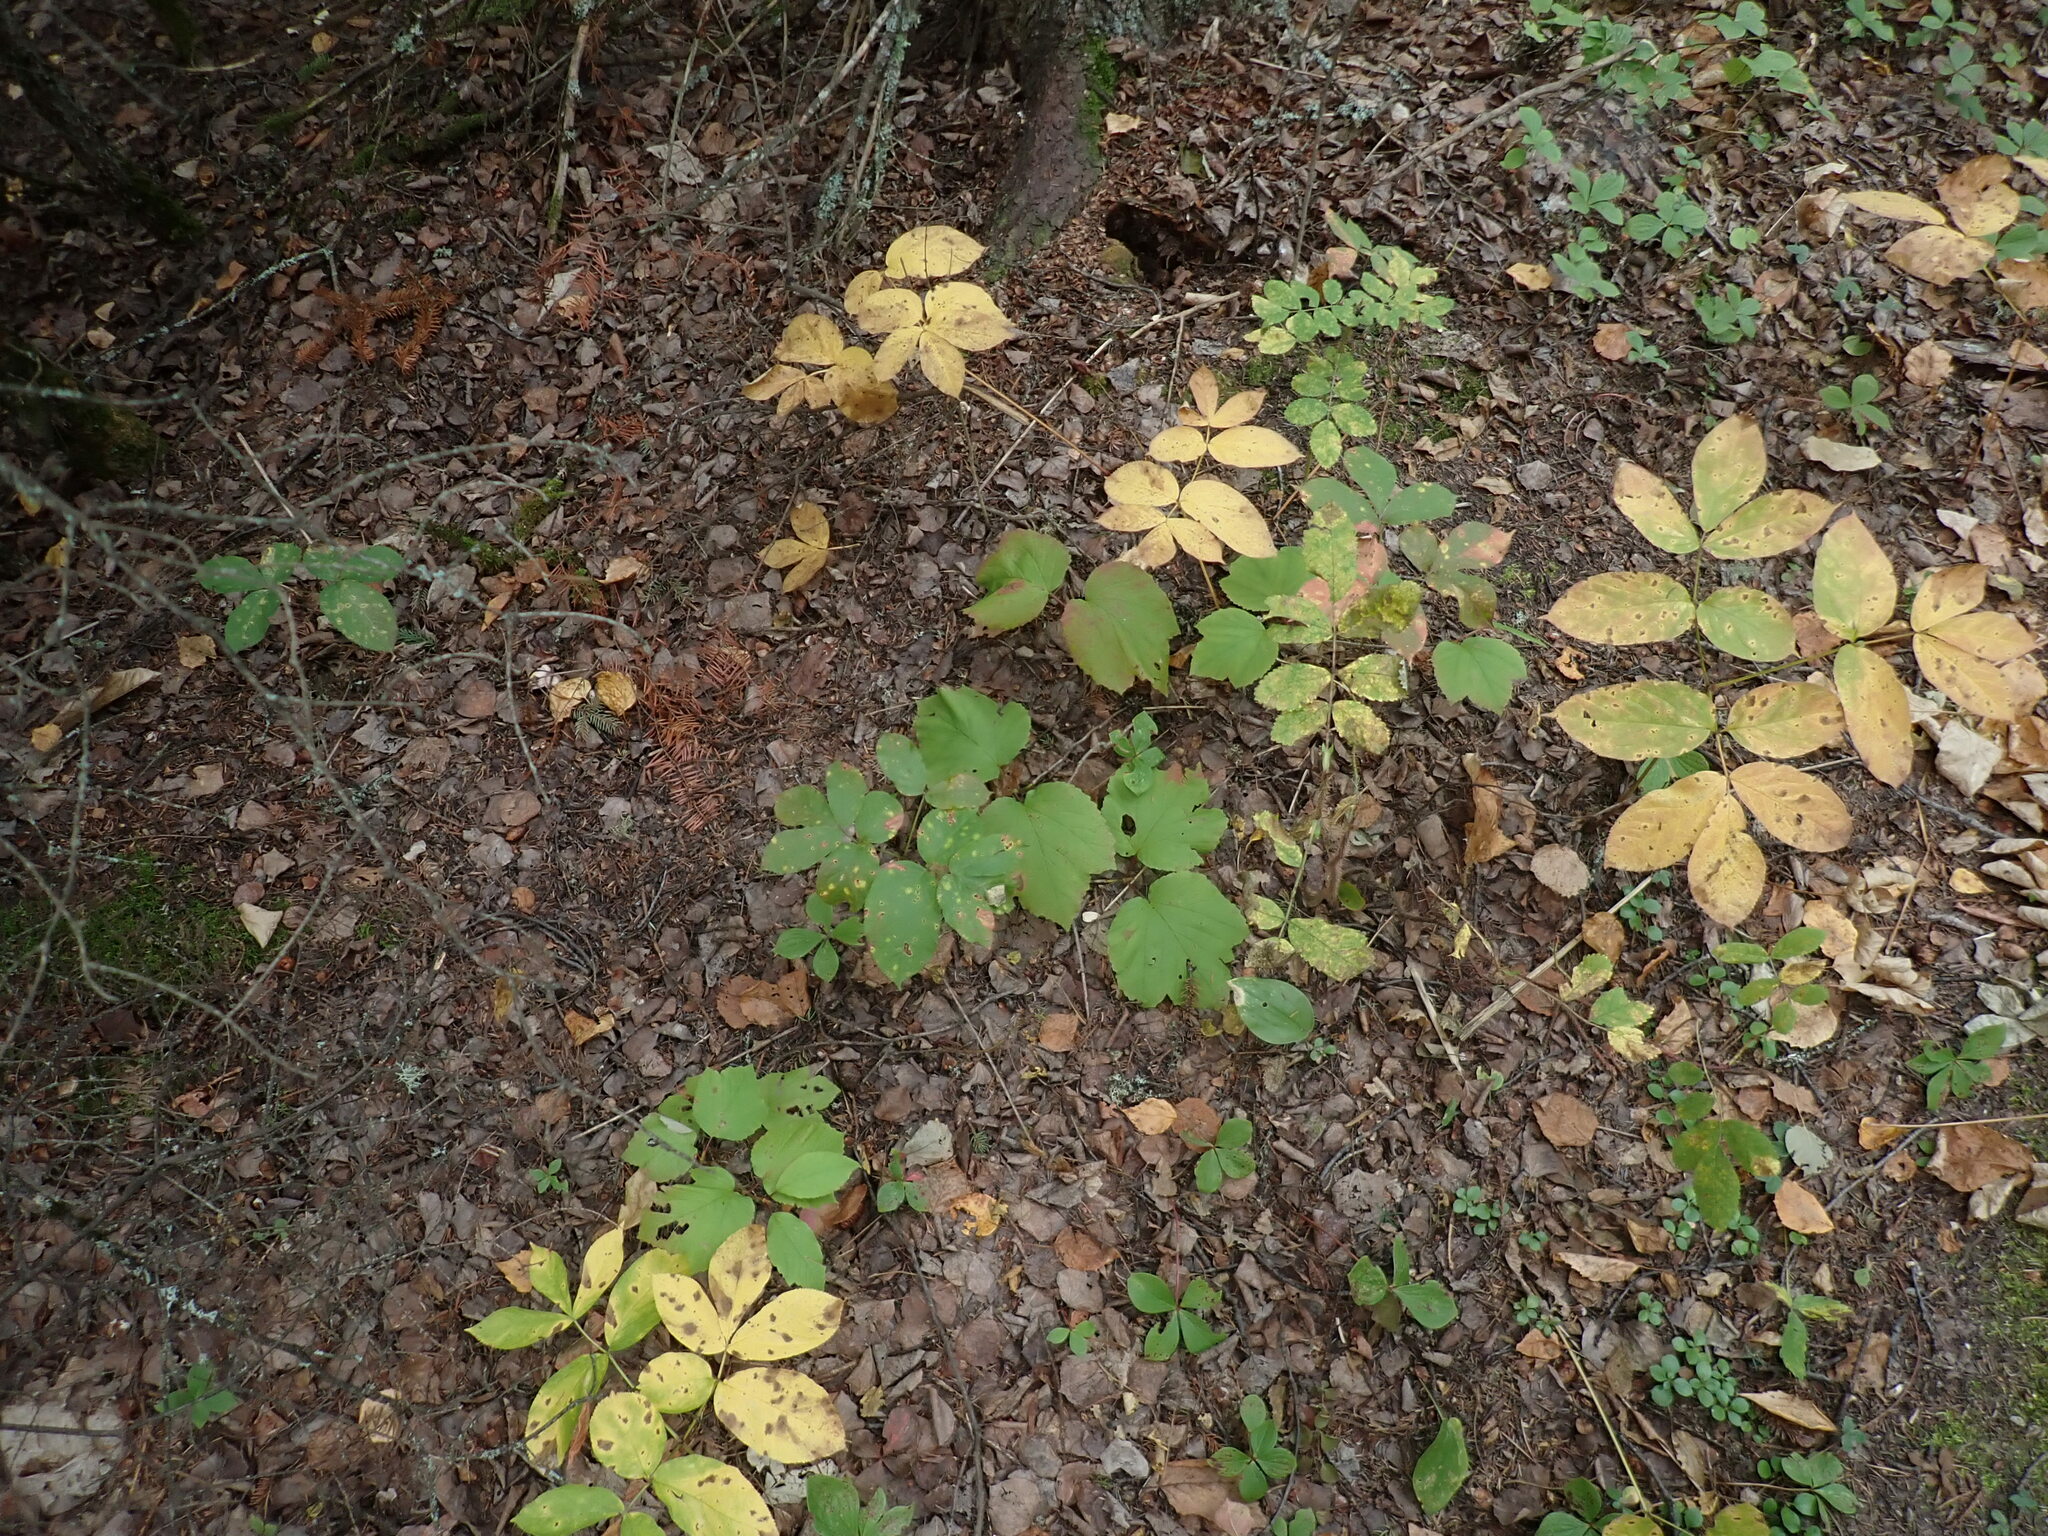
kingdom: Plantae
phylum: Tracheophyta
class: Magnoliopsida
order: Dipsacales
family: Viburnaceae
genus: Viburnum
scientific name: Viburnum edule
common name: Mooseberry
